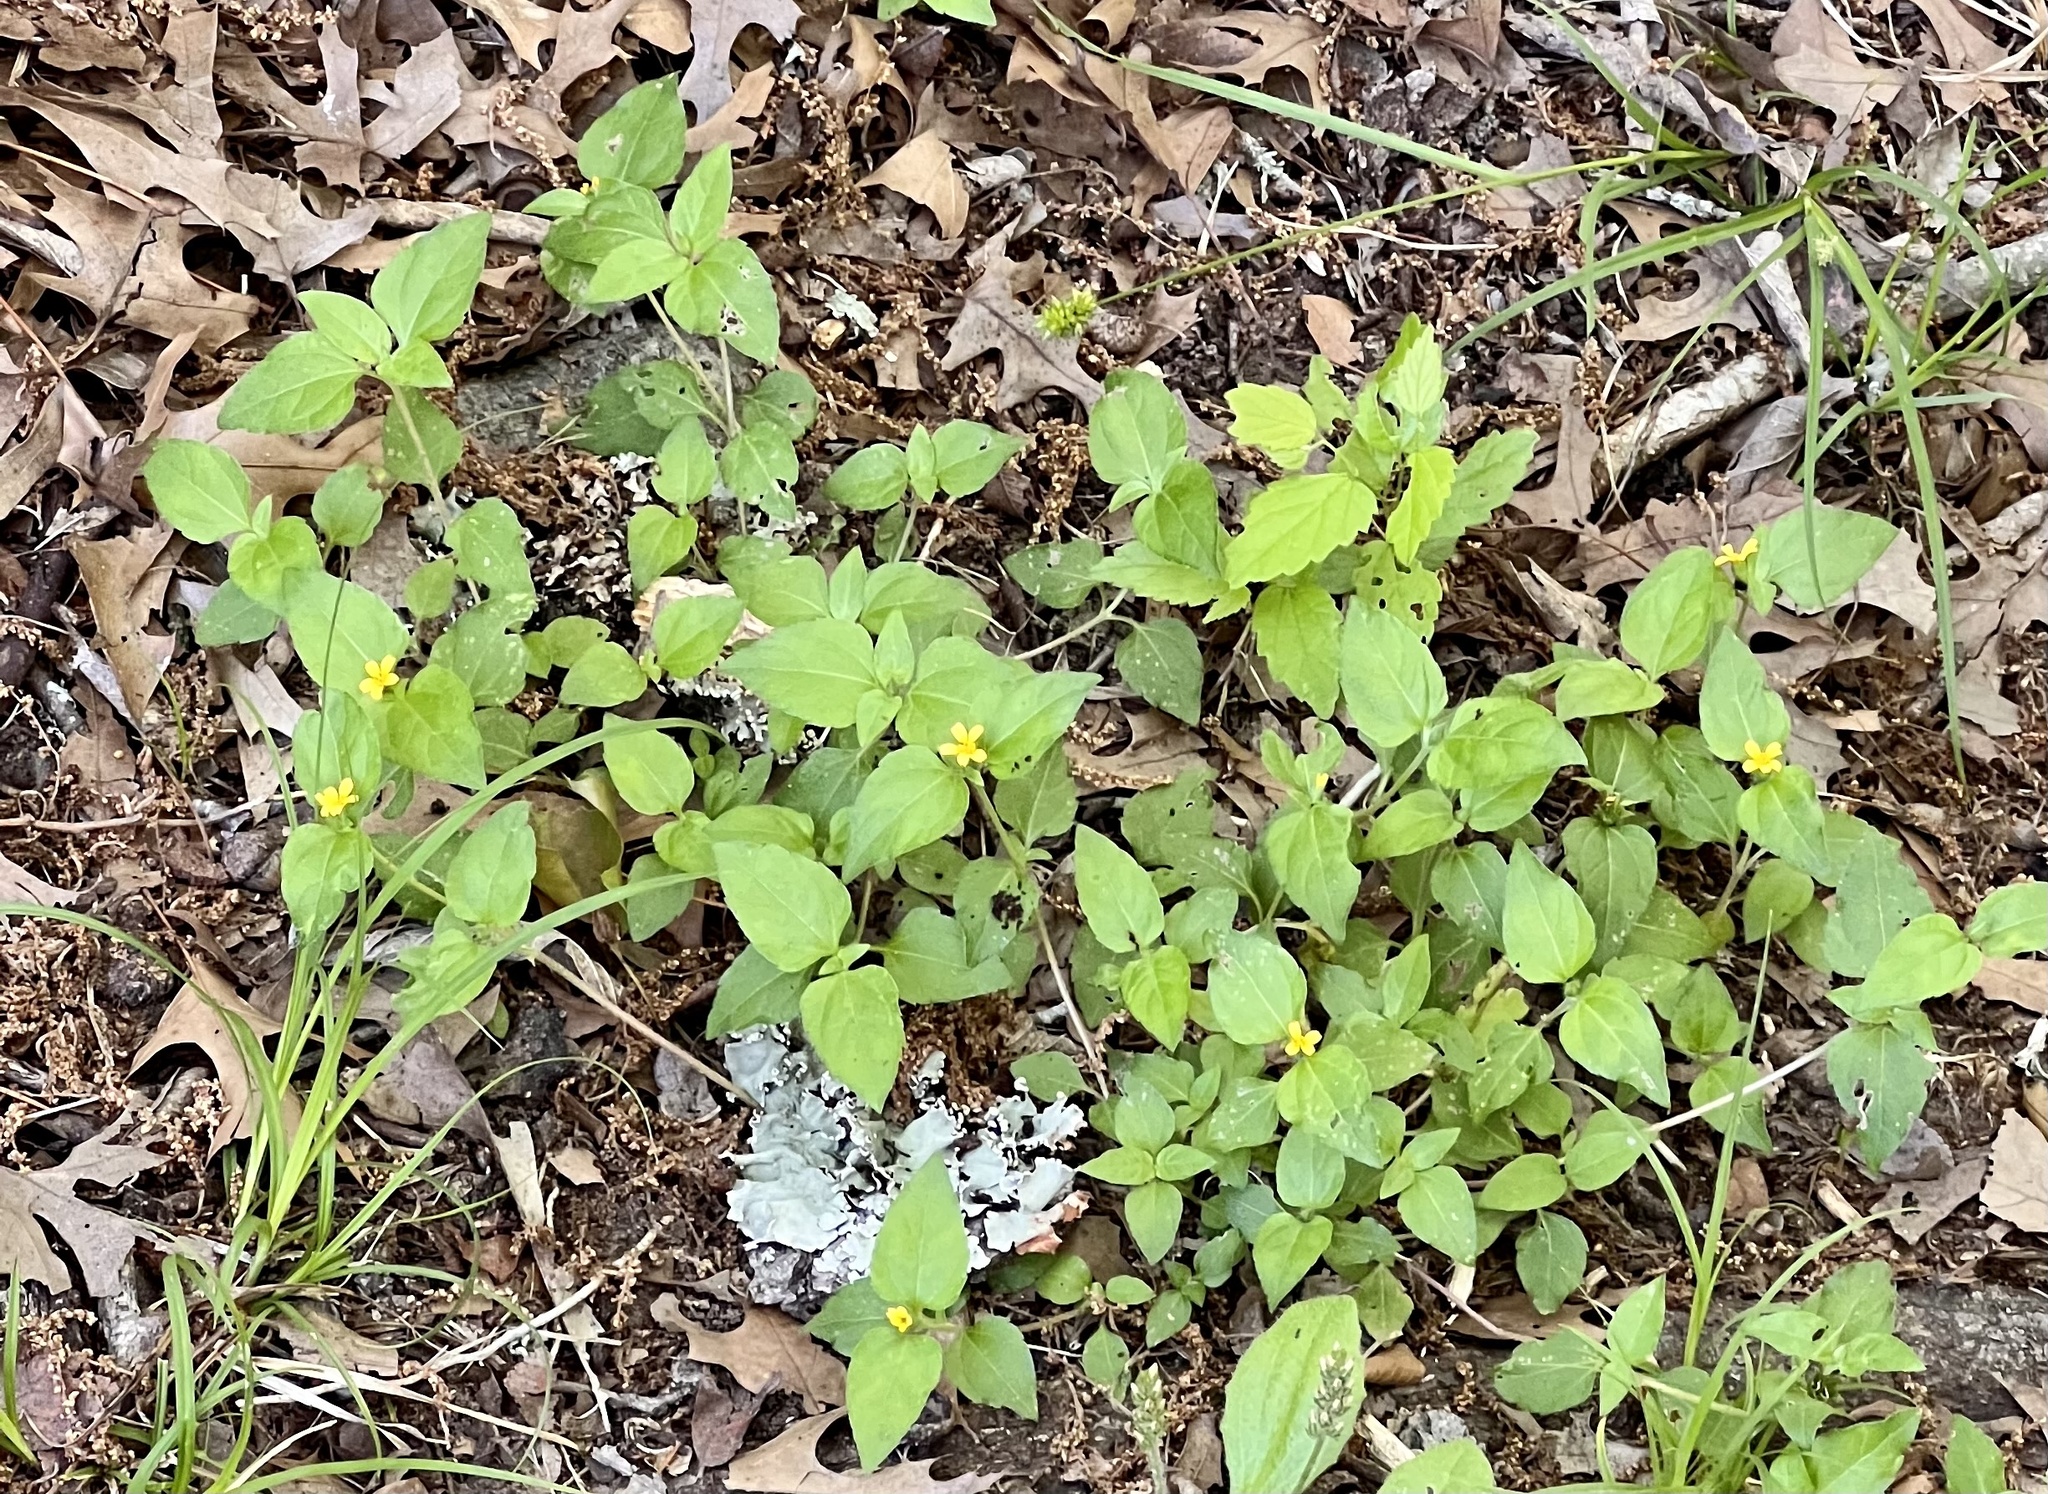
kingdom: Plantae
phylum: Tracheophyta
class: Magnoliopsida
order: Asterales
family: Asteraceae
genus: Calyptocarpus
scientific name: Calyptocarpus vialis
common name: Straggler daisy
